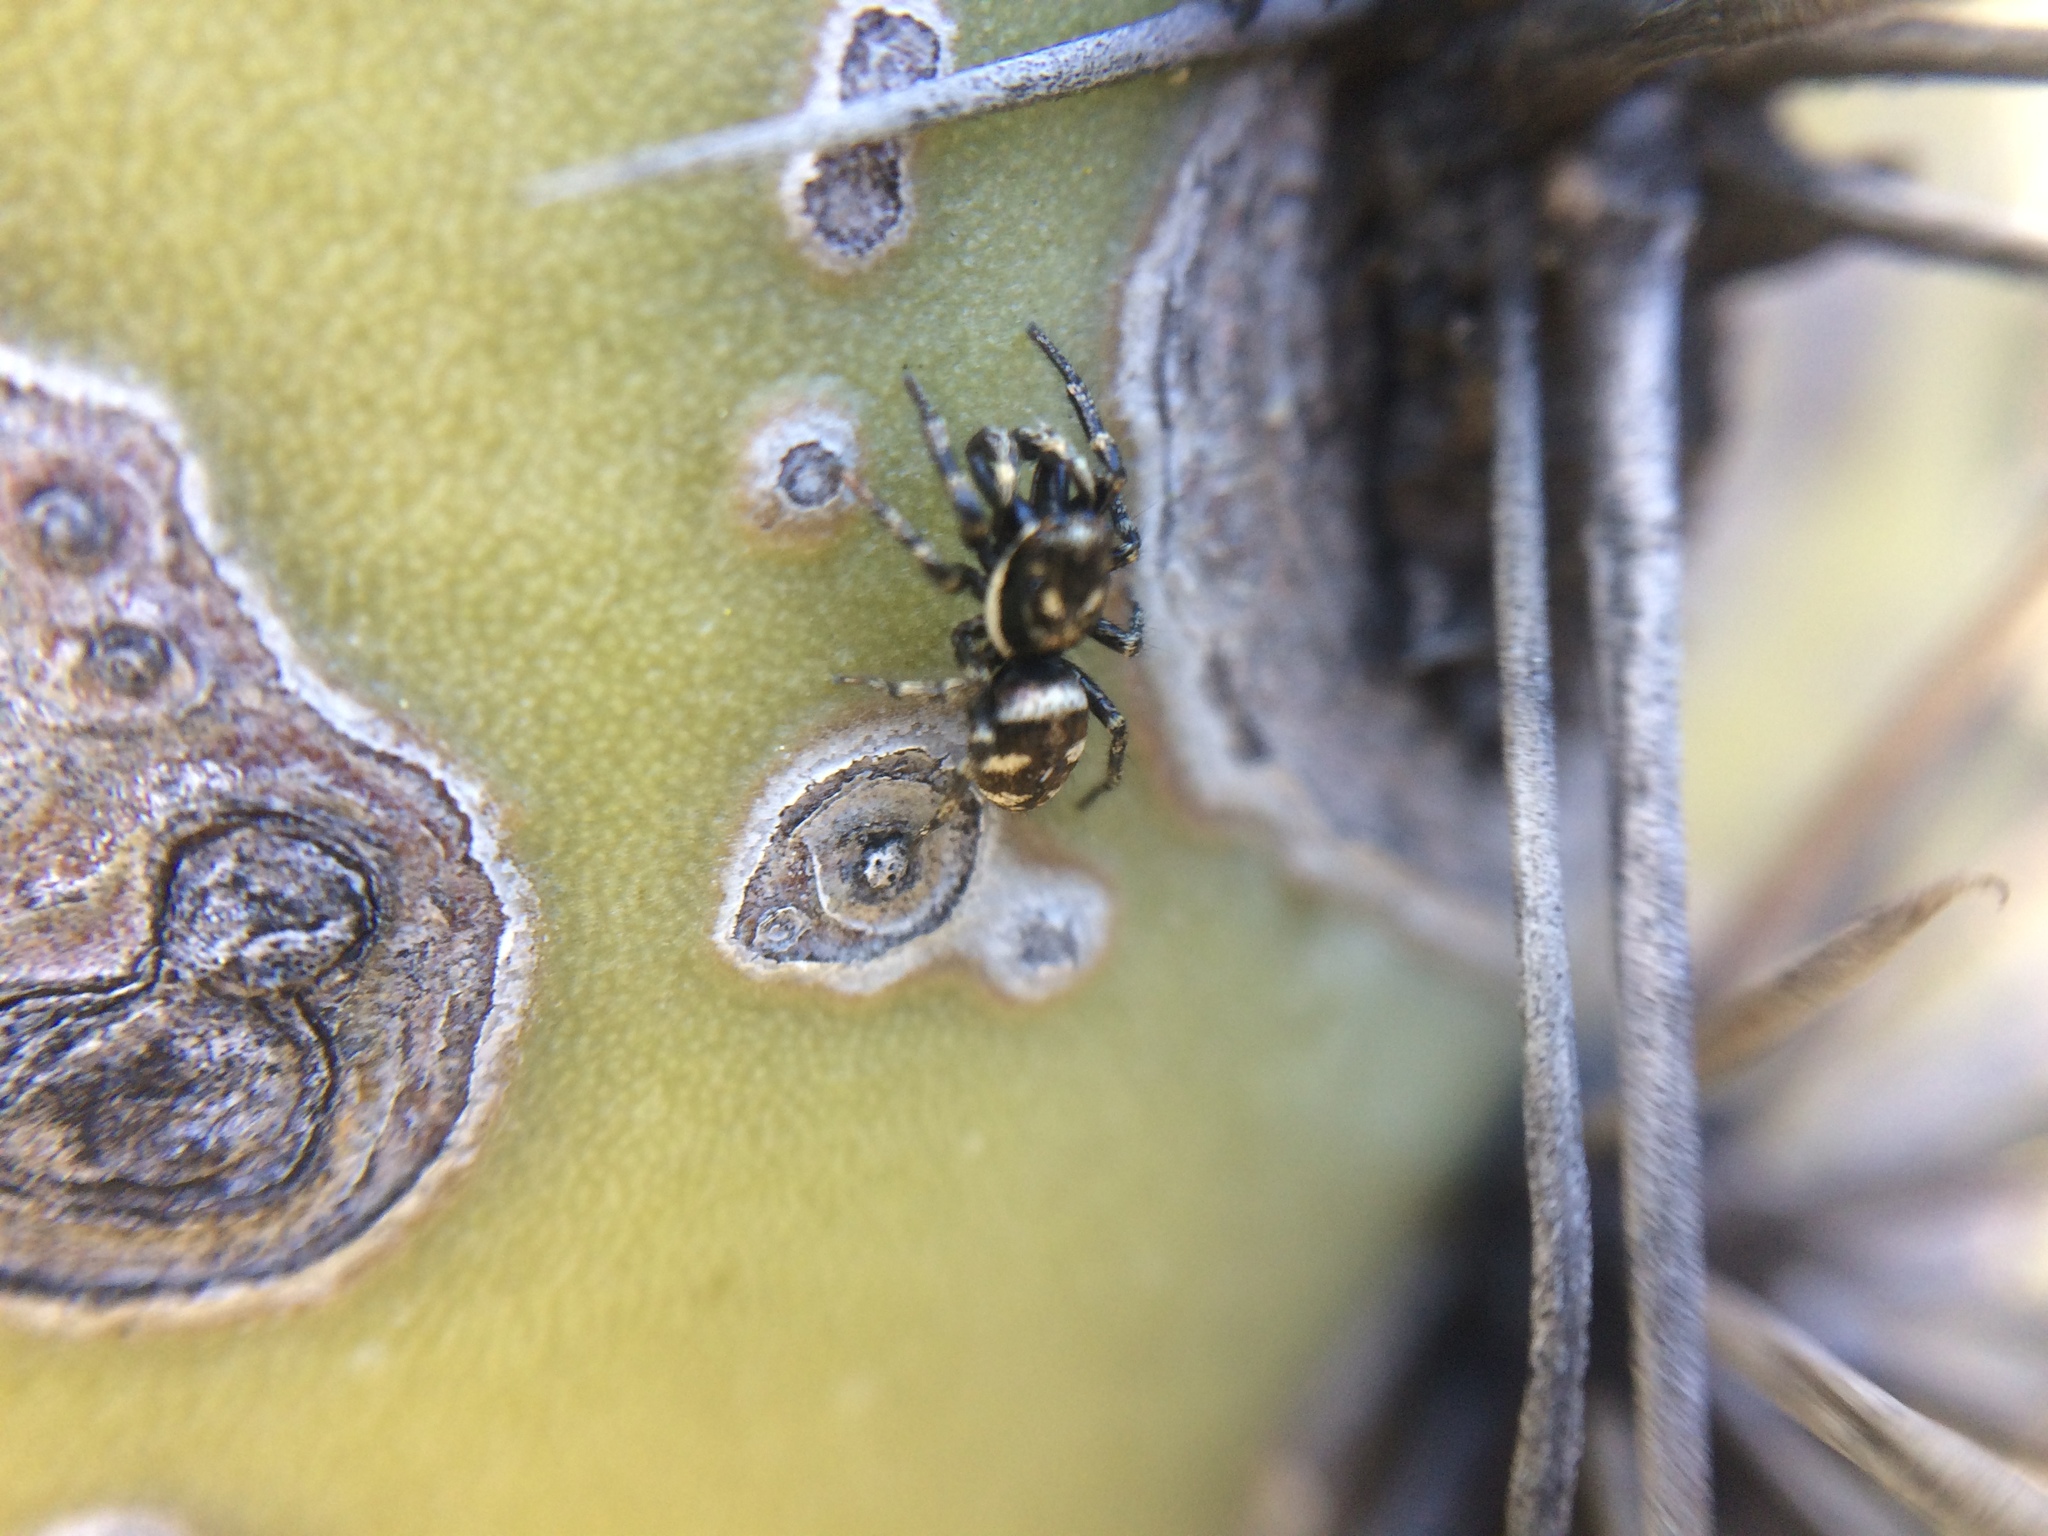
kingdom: Animalia
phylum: Arthropoda
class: Arachnida
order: Araneae
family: Salticidae
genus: Salticus
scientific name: Salticus scenicus
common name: Zebra jumper
